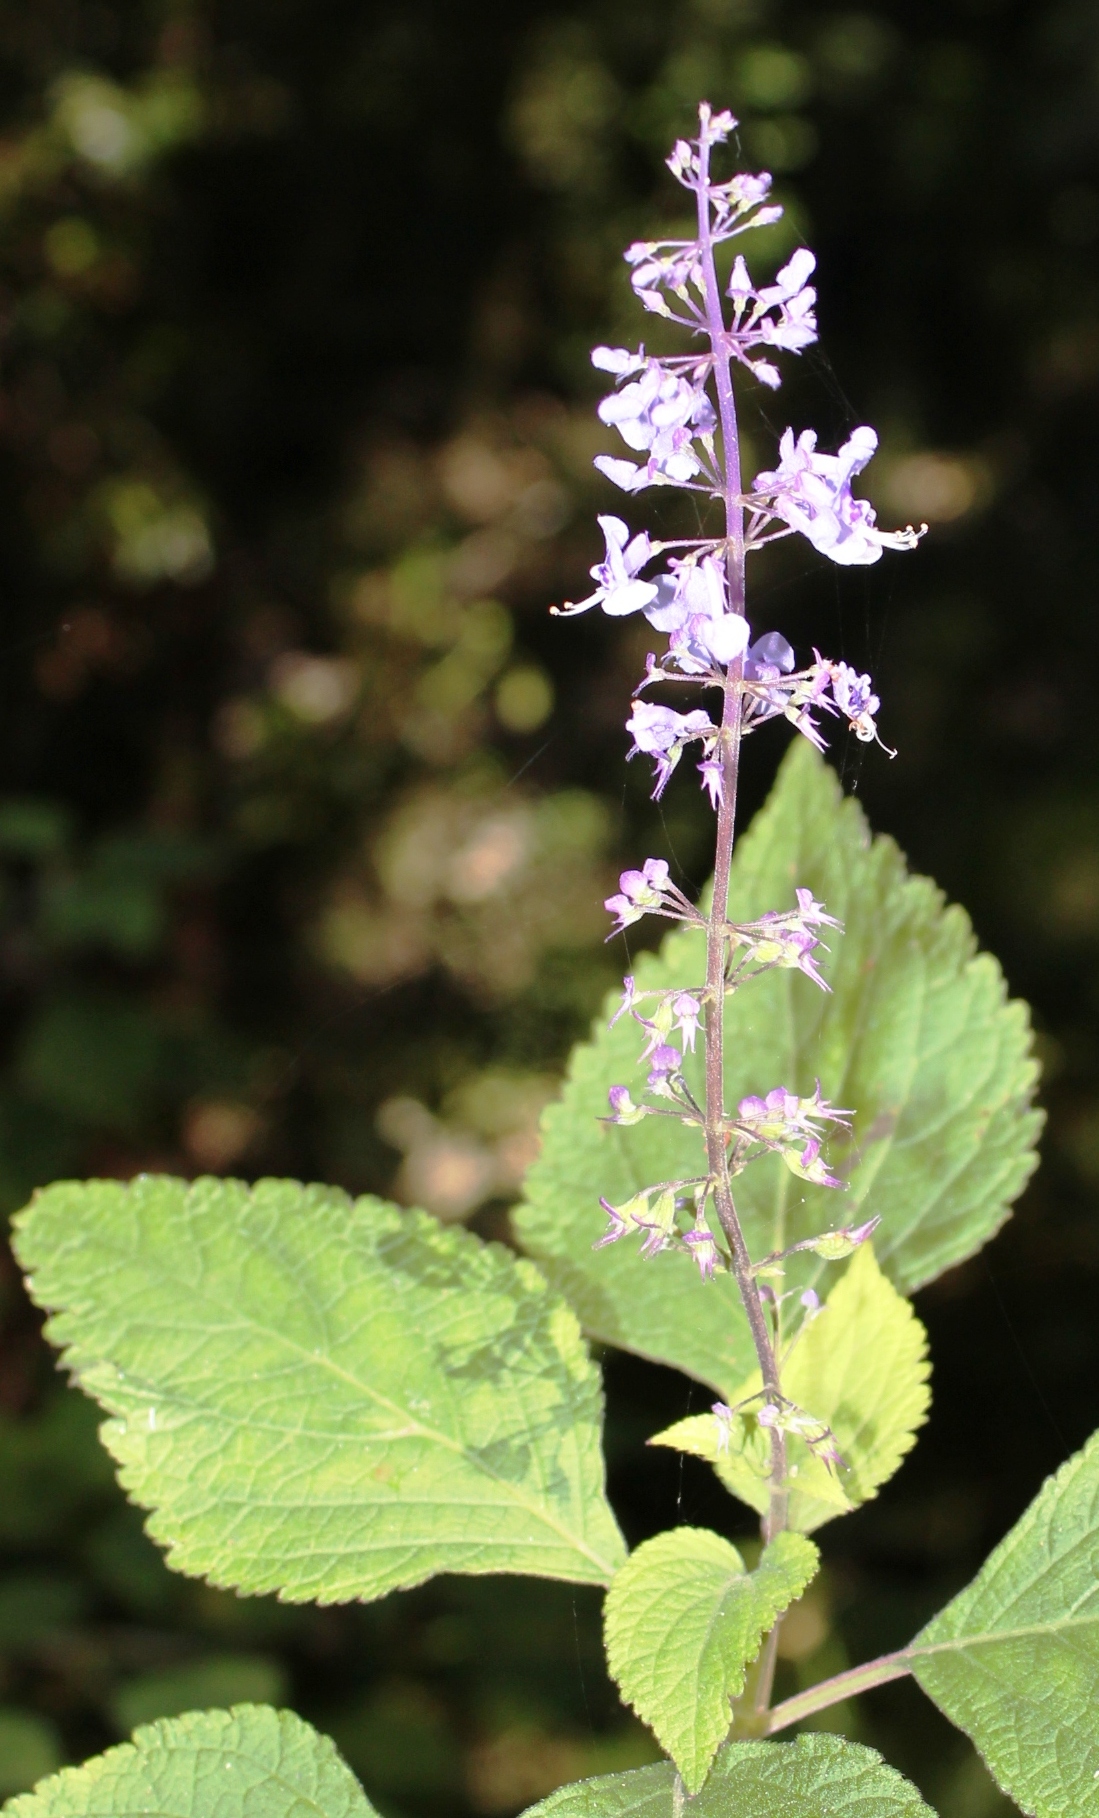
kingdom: Plantae
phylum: Tracheophyta
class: Magnoliopsida
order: Lamiales
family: Lamiaceae
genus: Plectranthus
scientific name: Plectranthus fruticosus
